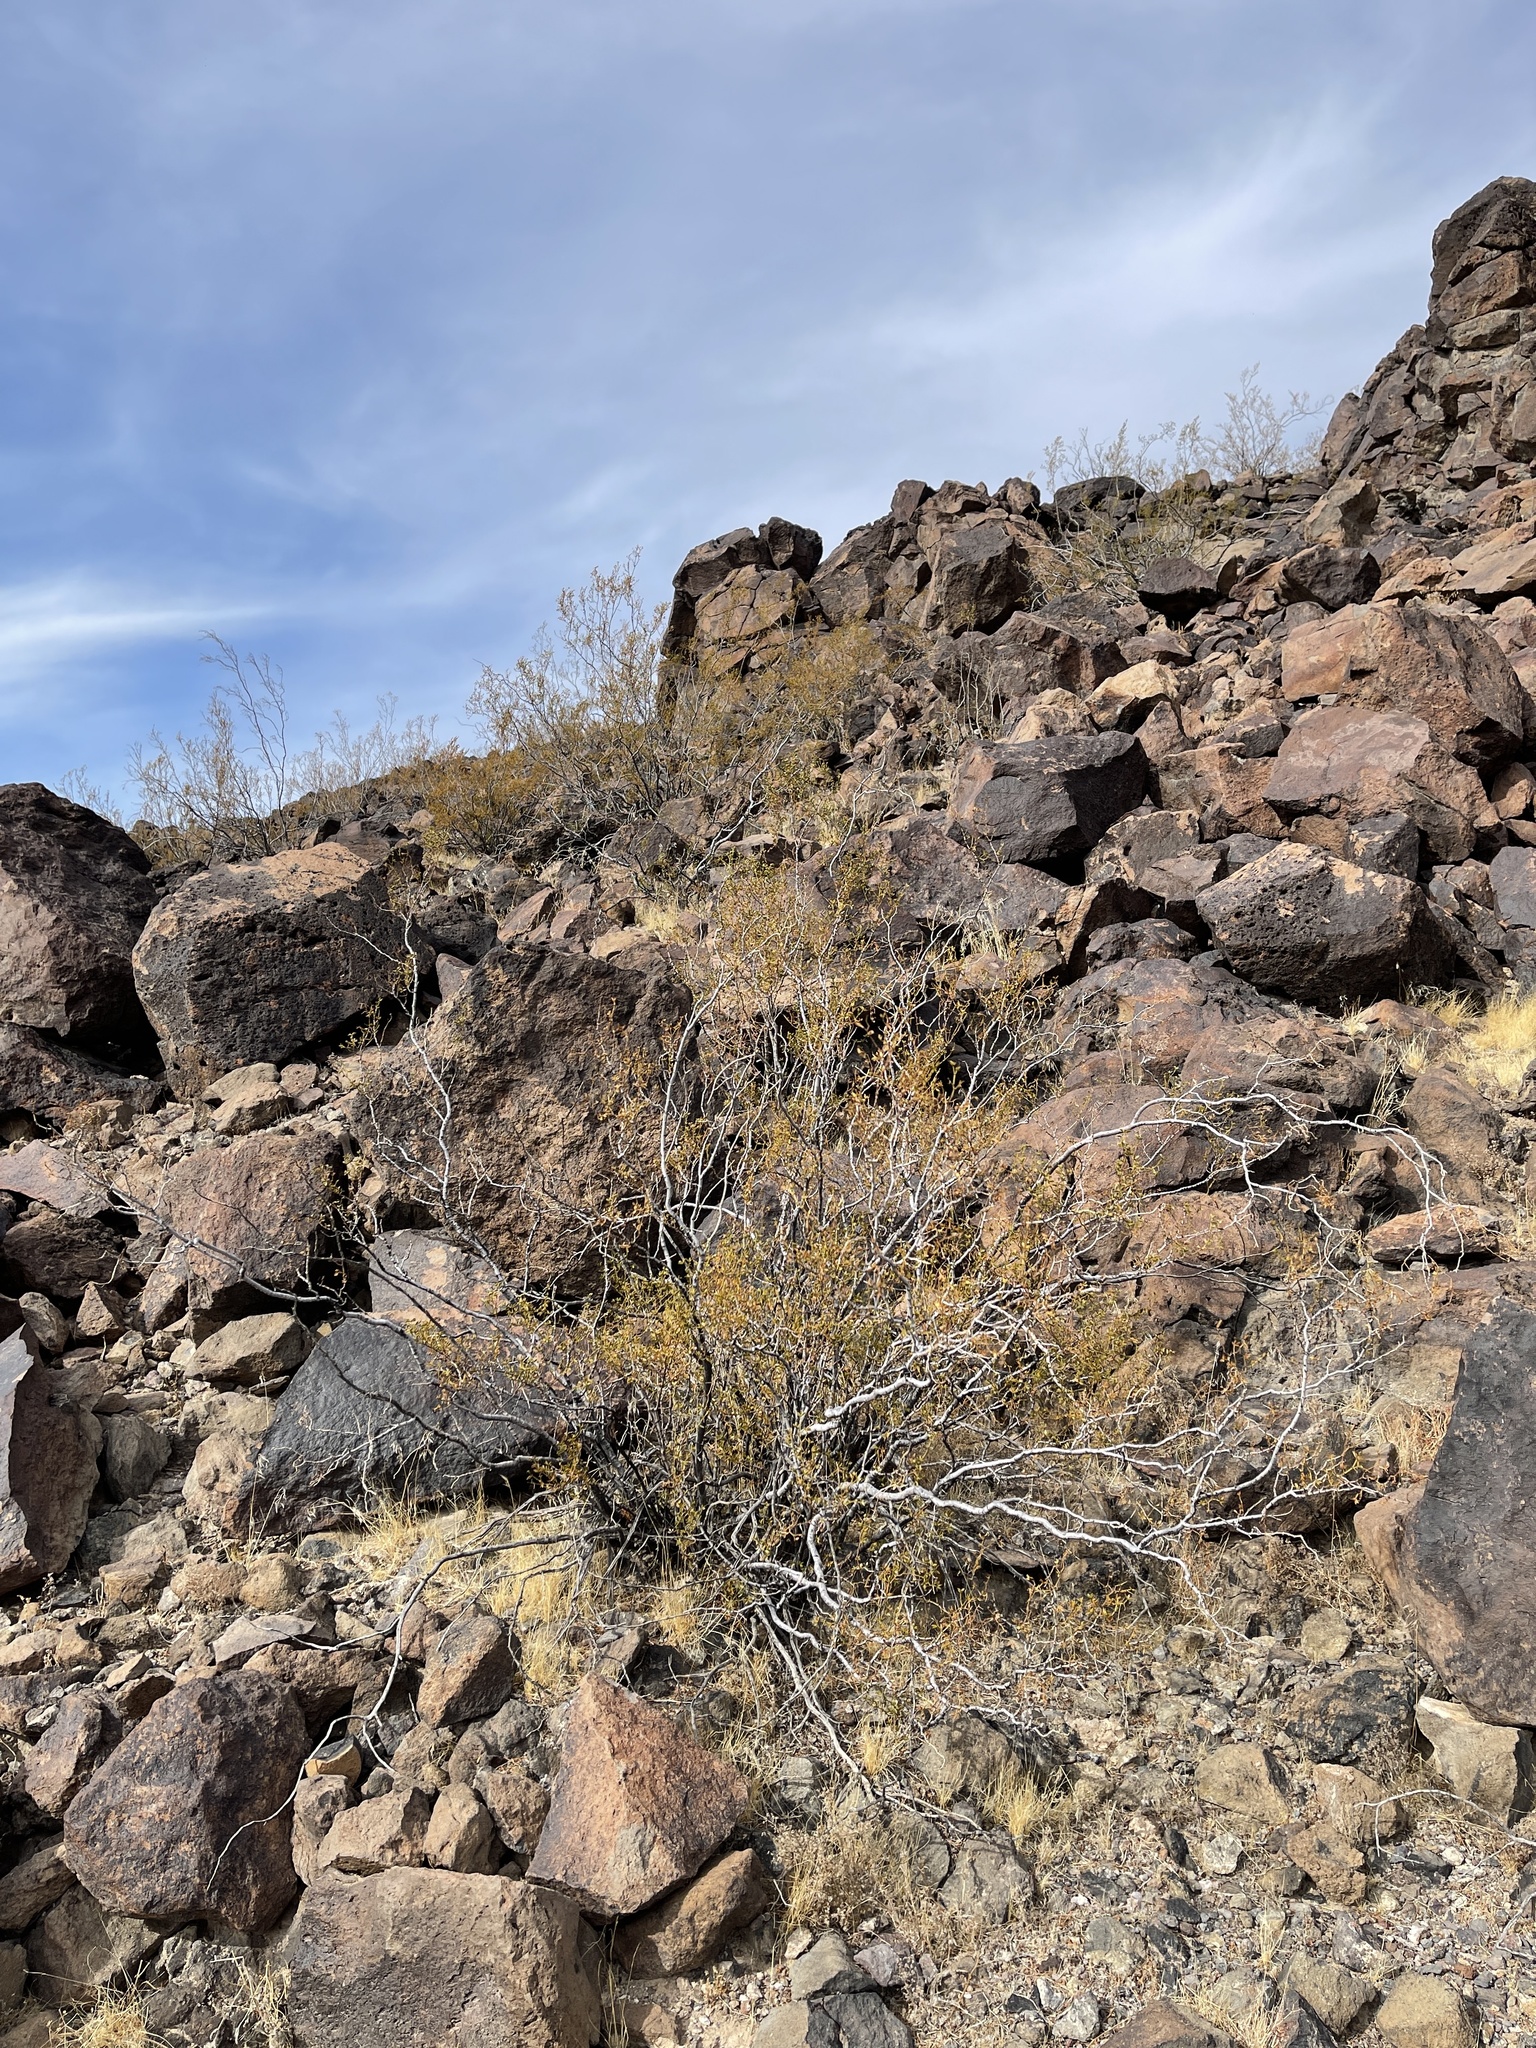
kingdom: Plantae
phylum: Tracheophyta
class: Magnoliopsida
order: Zygophyllales
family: Zygophyllaceae
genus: Larrea
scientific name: Larrea tridentata
